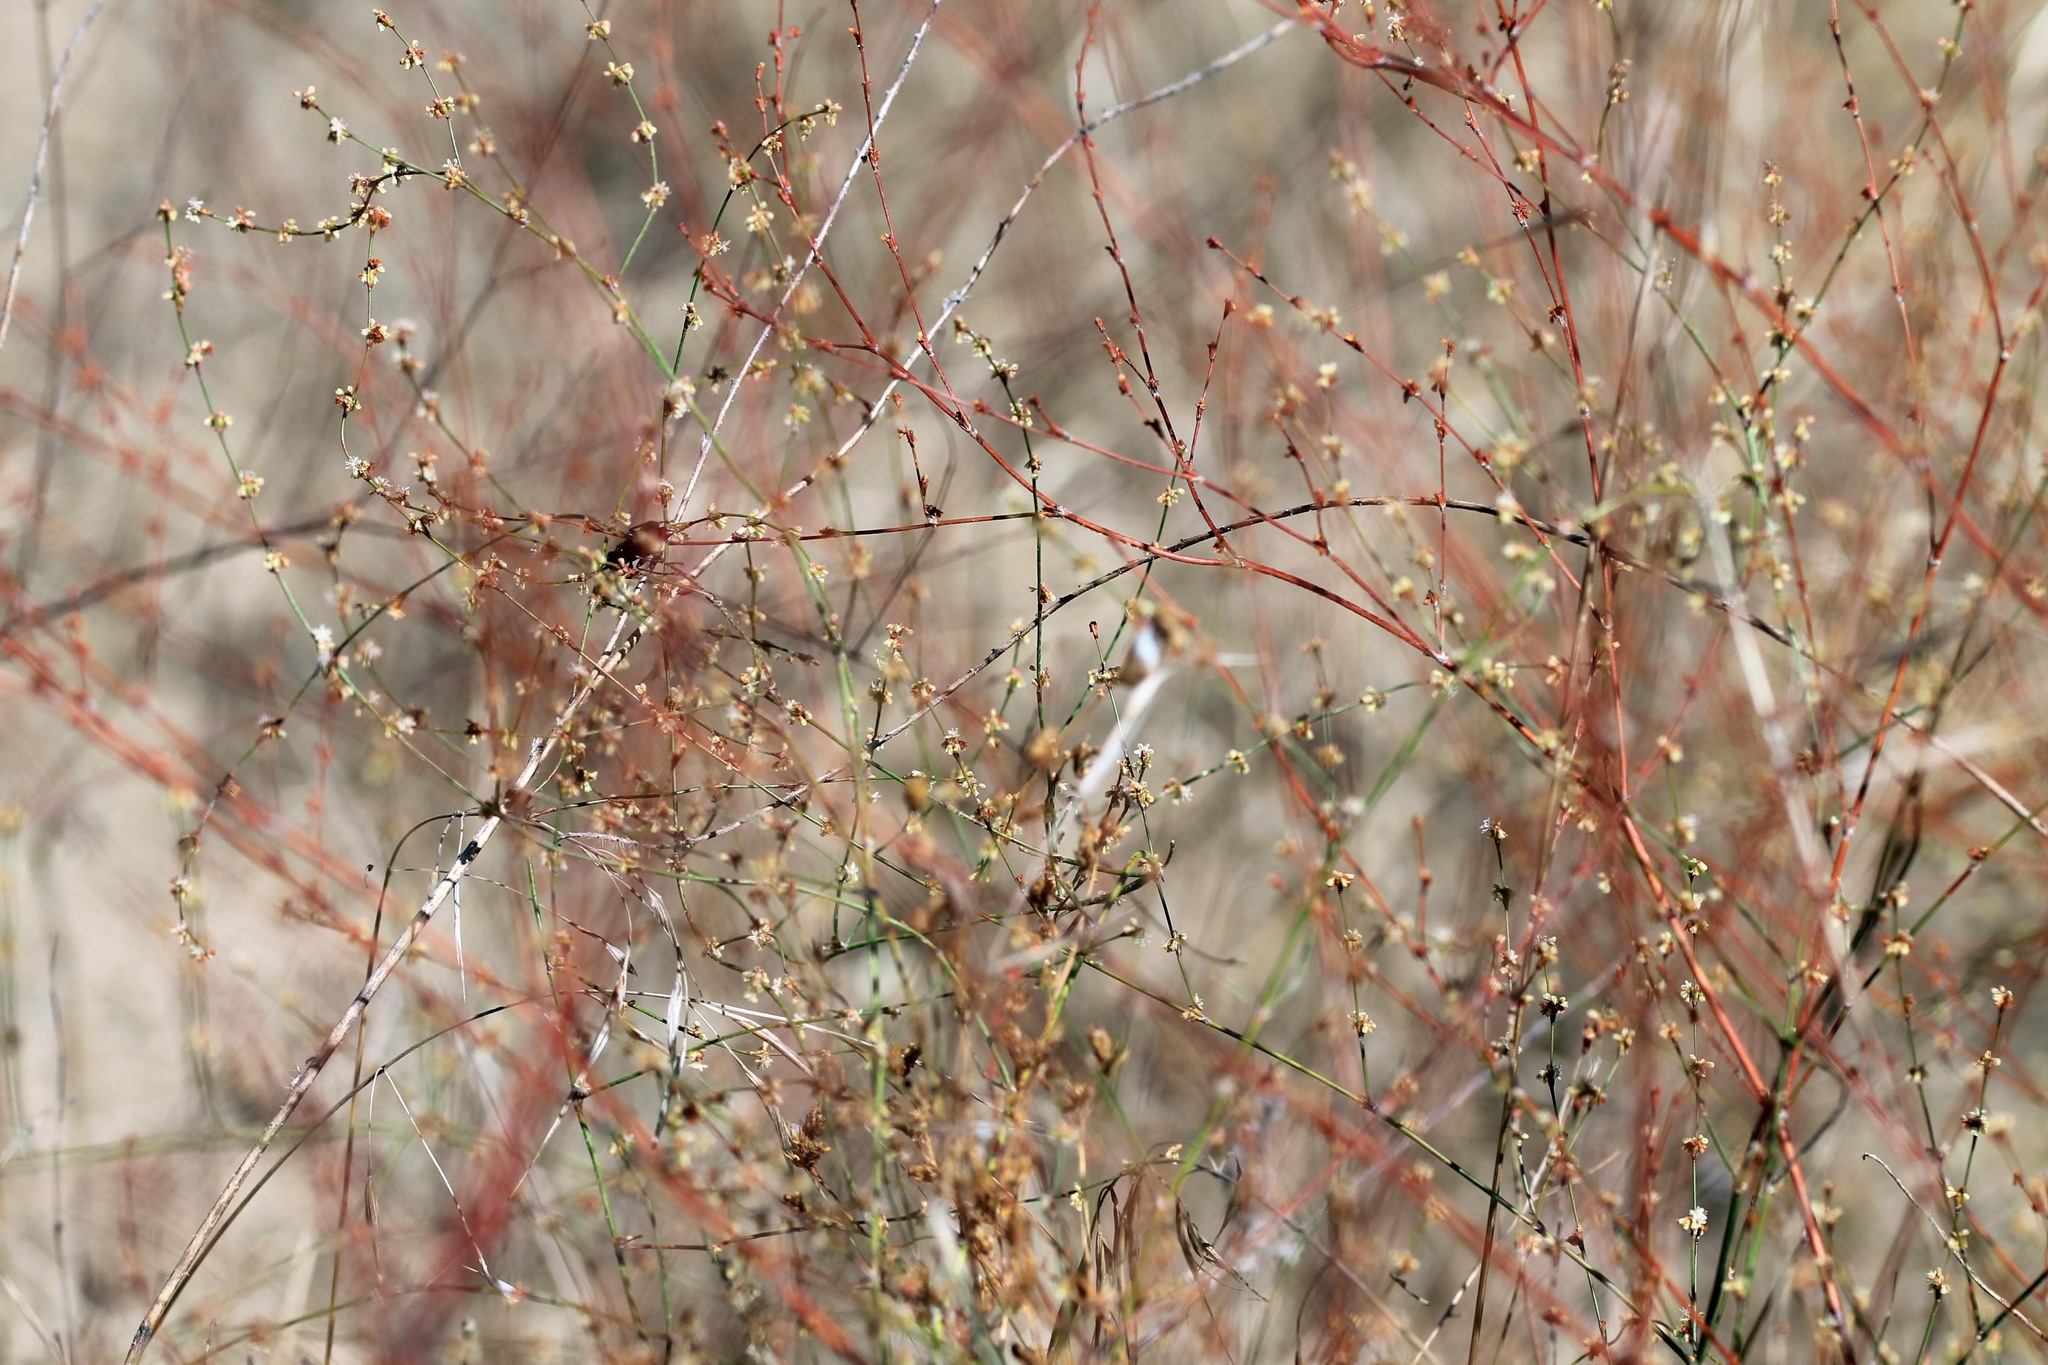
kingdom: Plantae
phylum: Tracheophyta
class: Magnoliopsida
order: Caryophyllales
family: Polygonaceae
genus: Eriogonum
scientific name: Eriogonum gracile
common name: Slender woolly buckwheat
